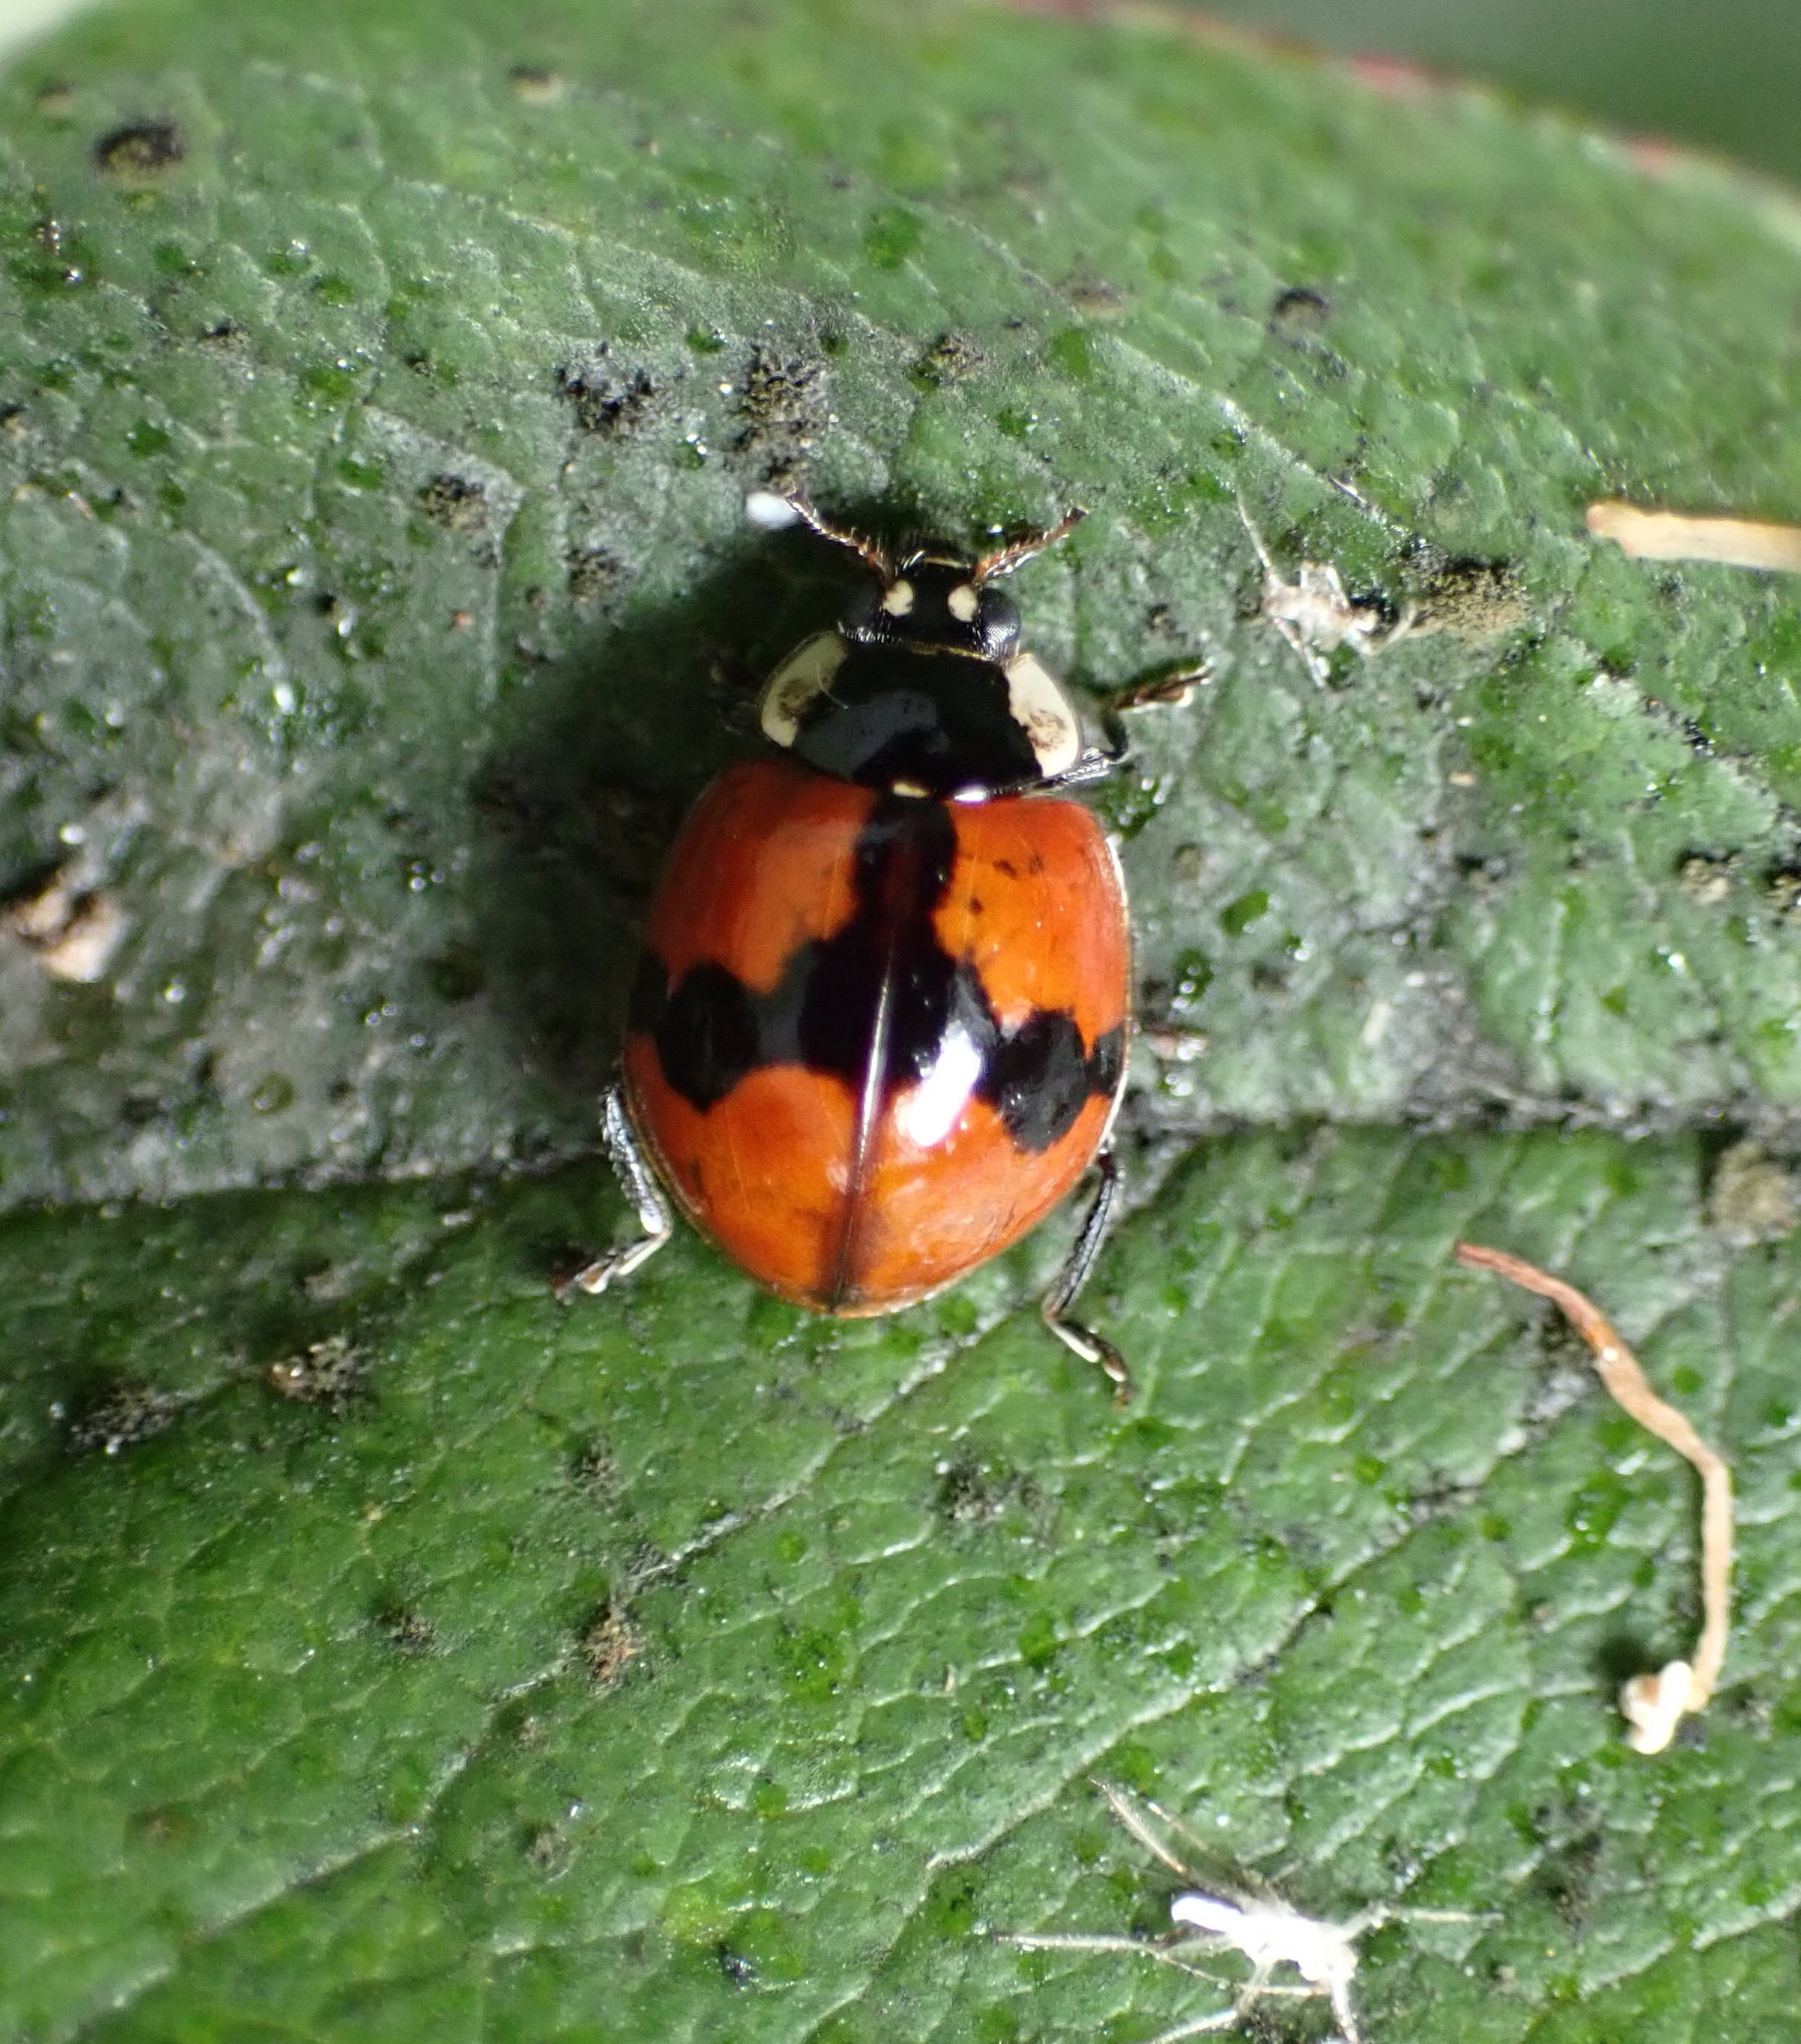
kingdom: Animalia
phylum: Arthropoda
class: Insecta
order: Coleoptera
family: Coccinellidae
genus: Adalia
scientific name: Adalia bipunctata
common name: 2-spot ladybird
